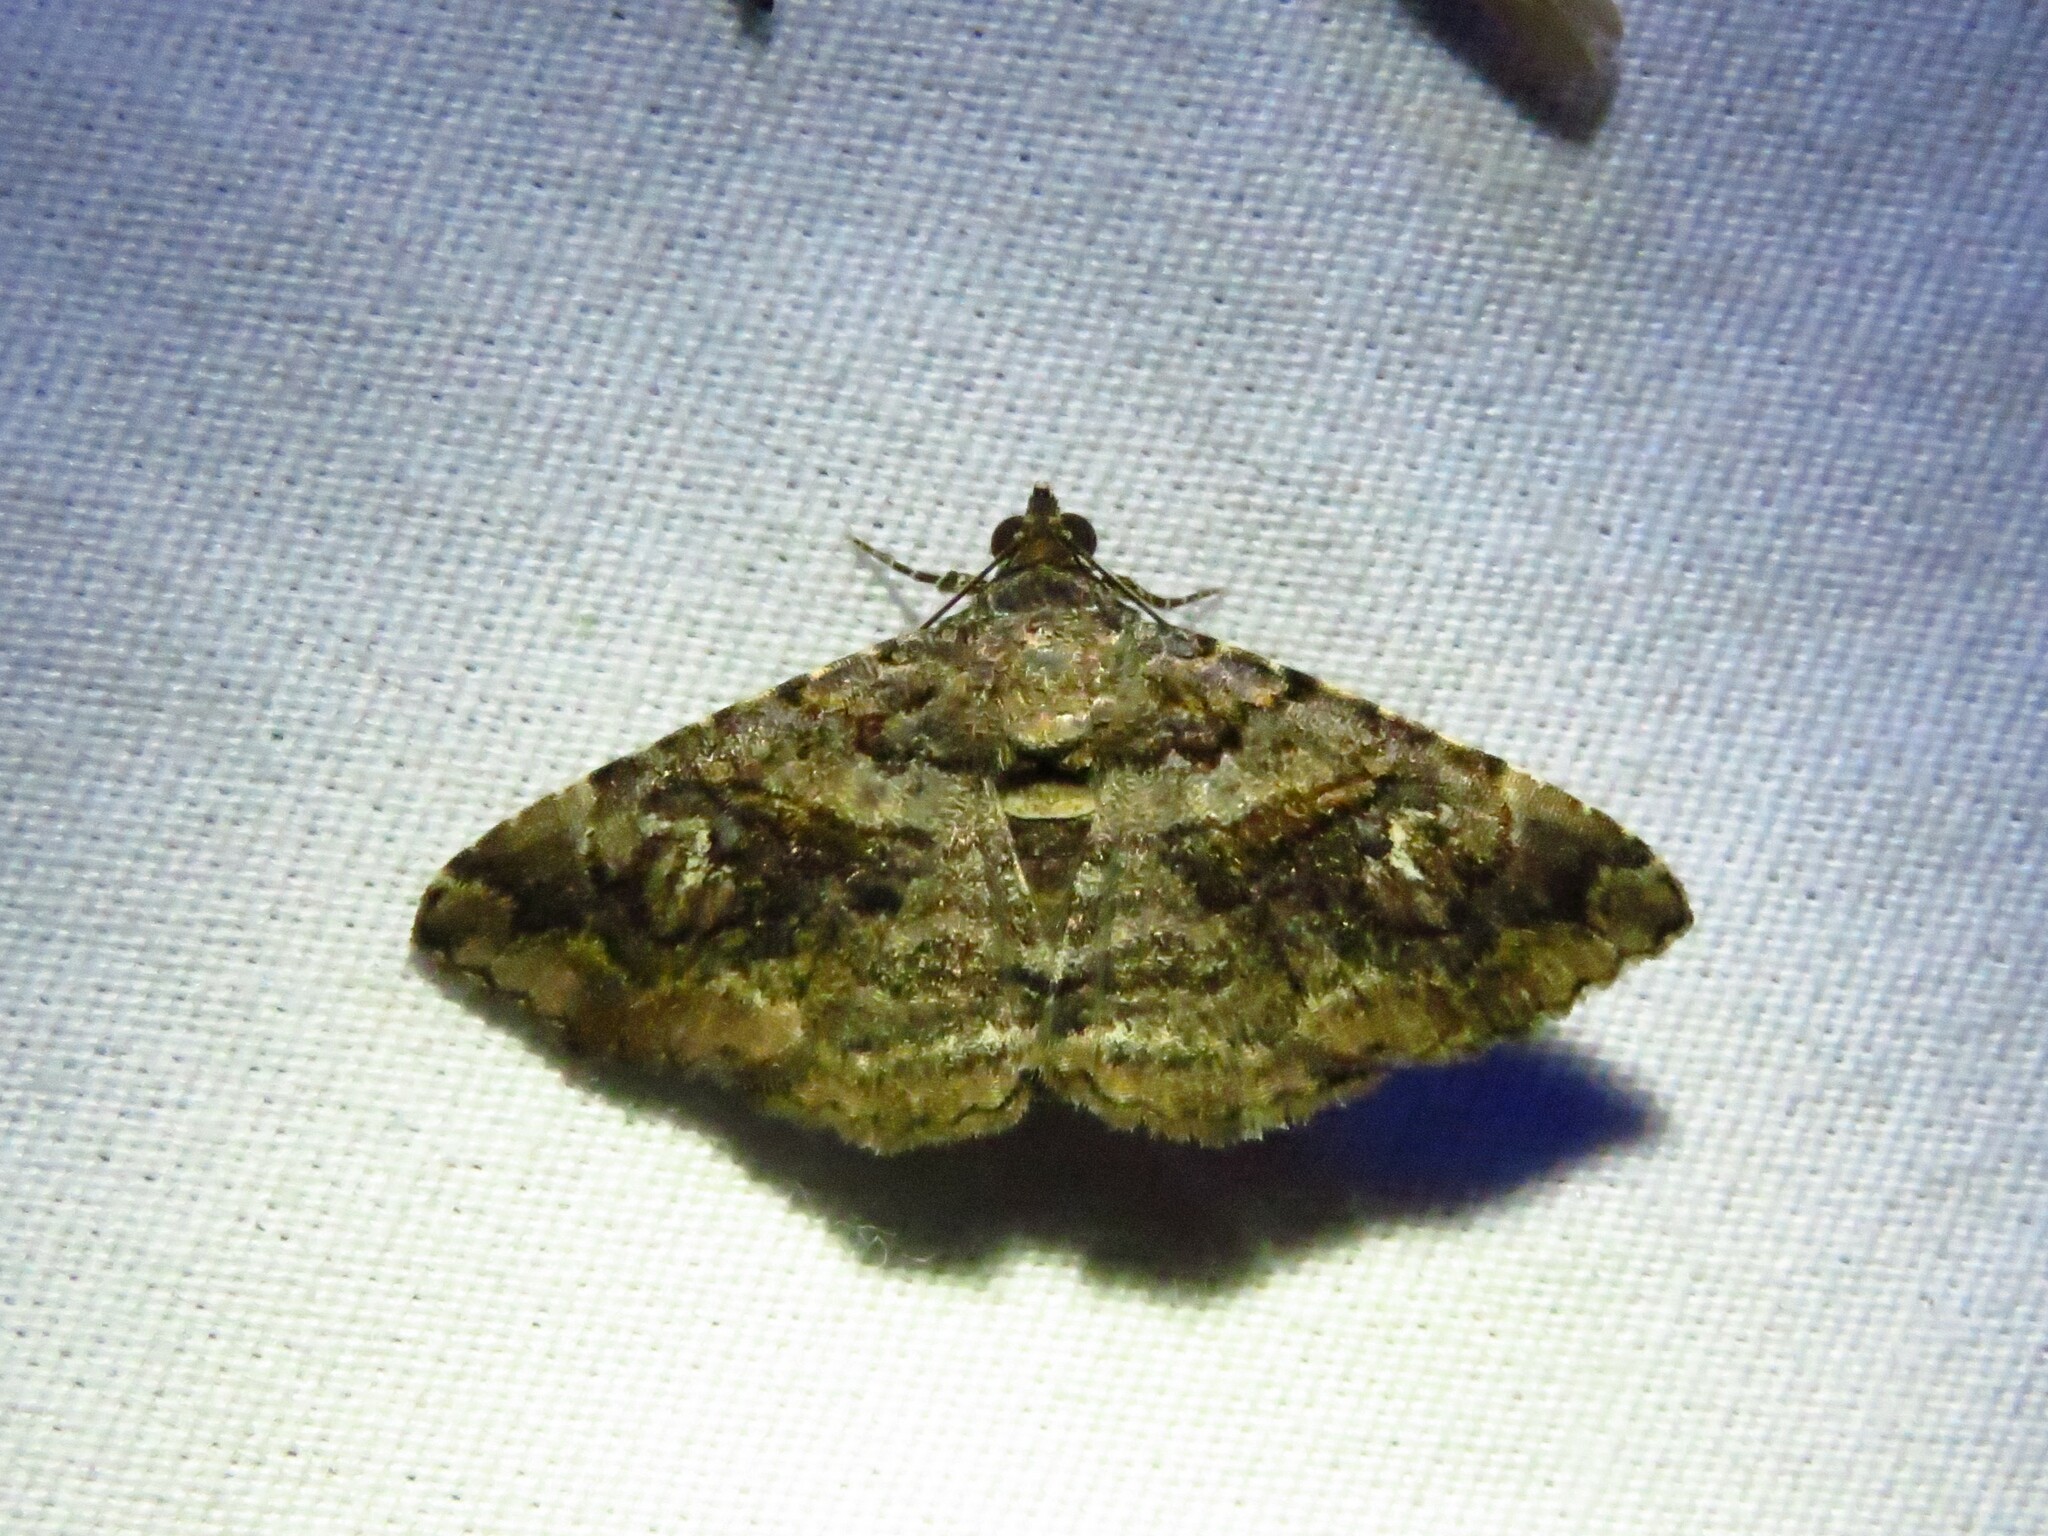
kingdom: Animalia
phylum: Arthropoda
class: Insecta
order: Lepidoptera
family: Erebidae
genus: Toxonprucha
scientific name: Toxonprucha excavata
